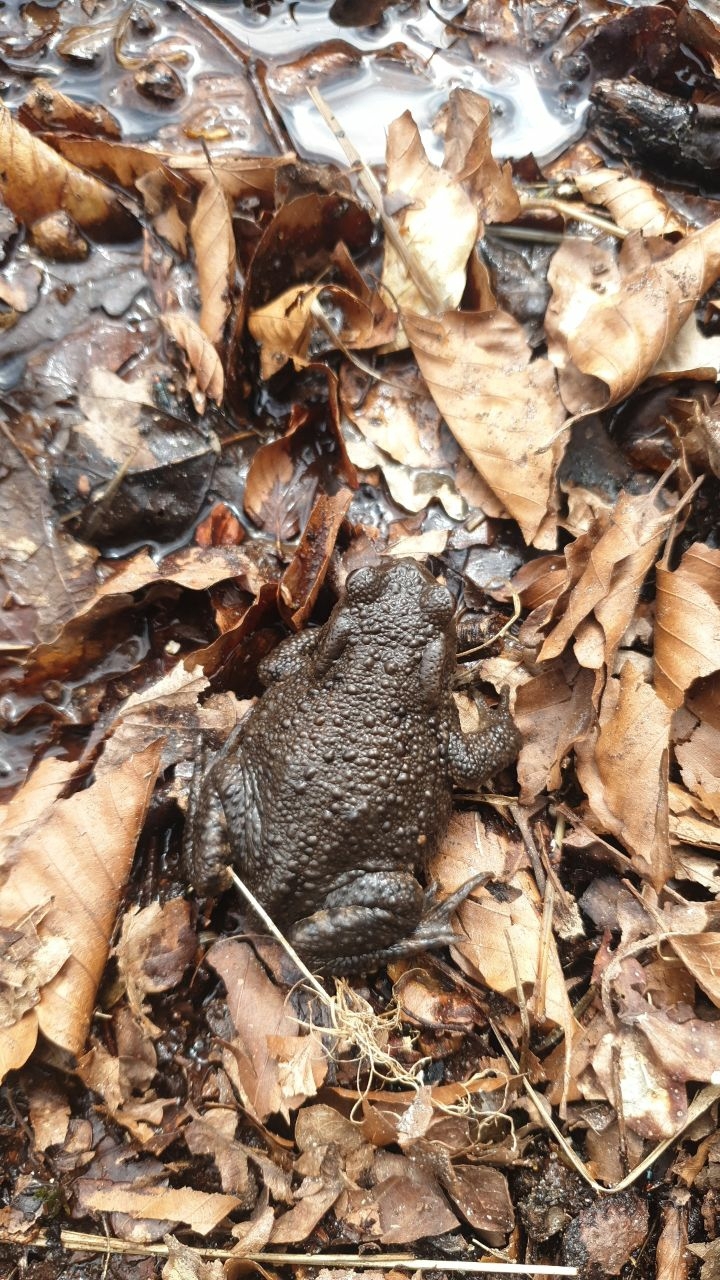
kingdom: Animalia
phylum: Chordata
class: Amphibia
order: Anura
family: Bufonidae
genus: Bufo
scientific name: Bufo bufo
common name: Common toad
